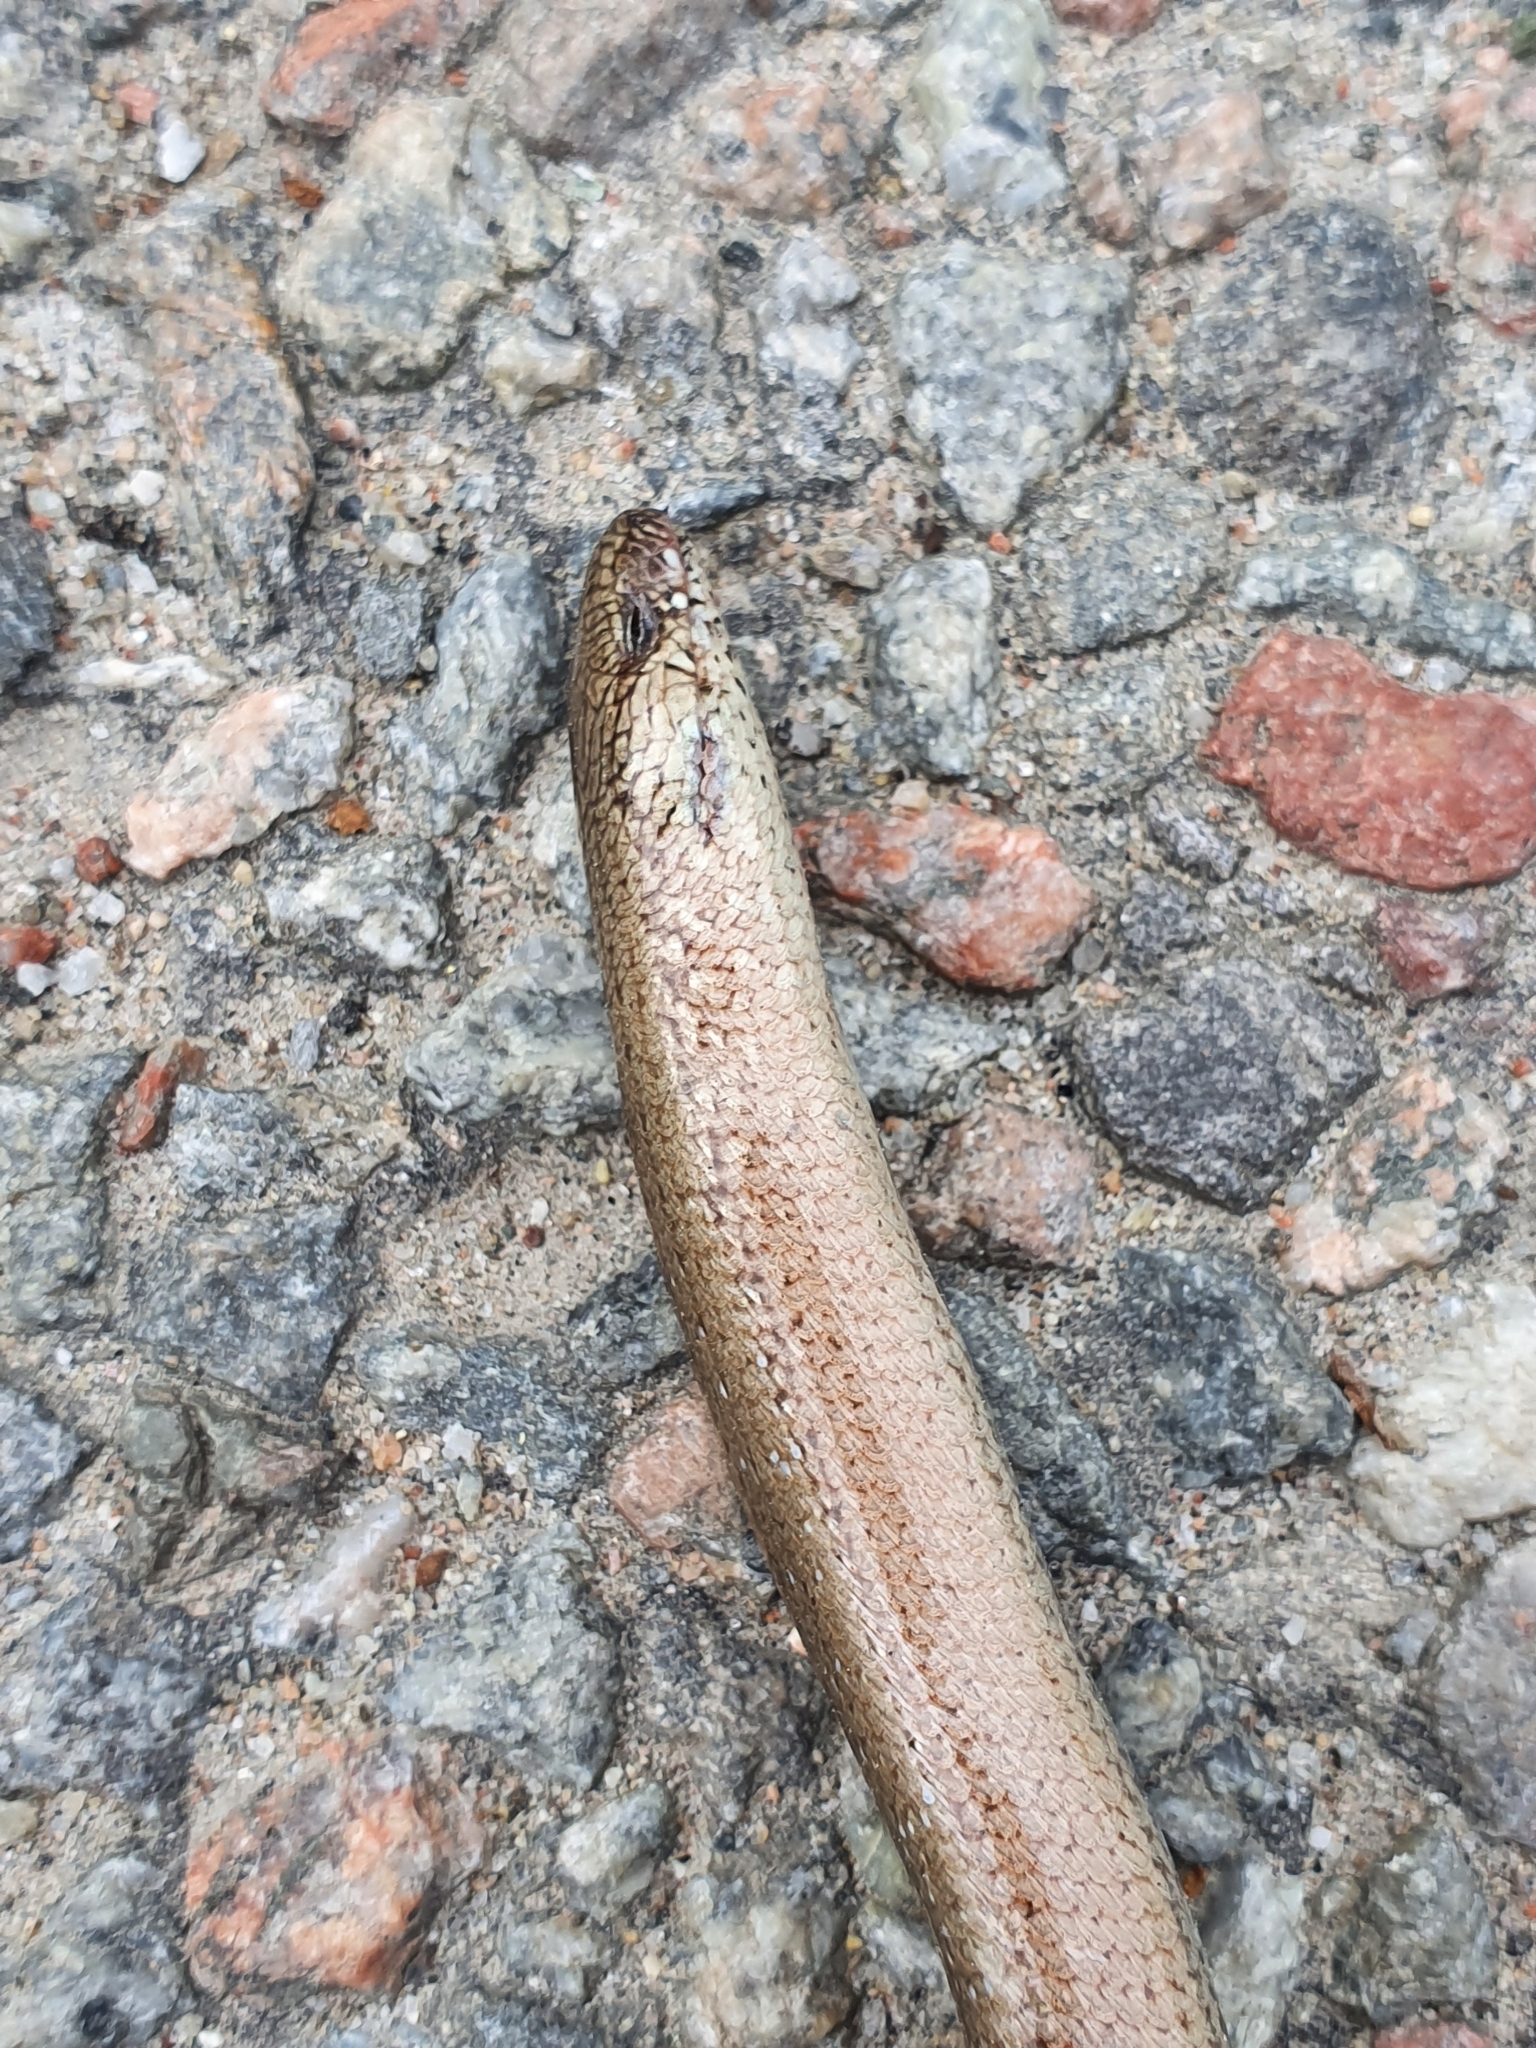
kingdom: Animalia
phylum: Chordata
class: Squamata
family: Anguidae
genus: Anguis
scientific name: Anguis fragilis
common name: Slow worm
